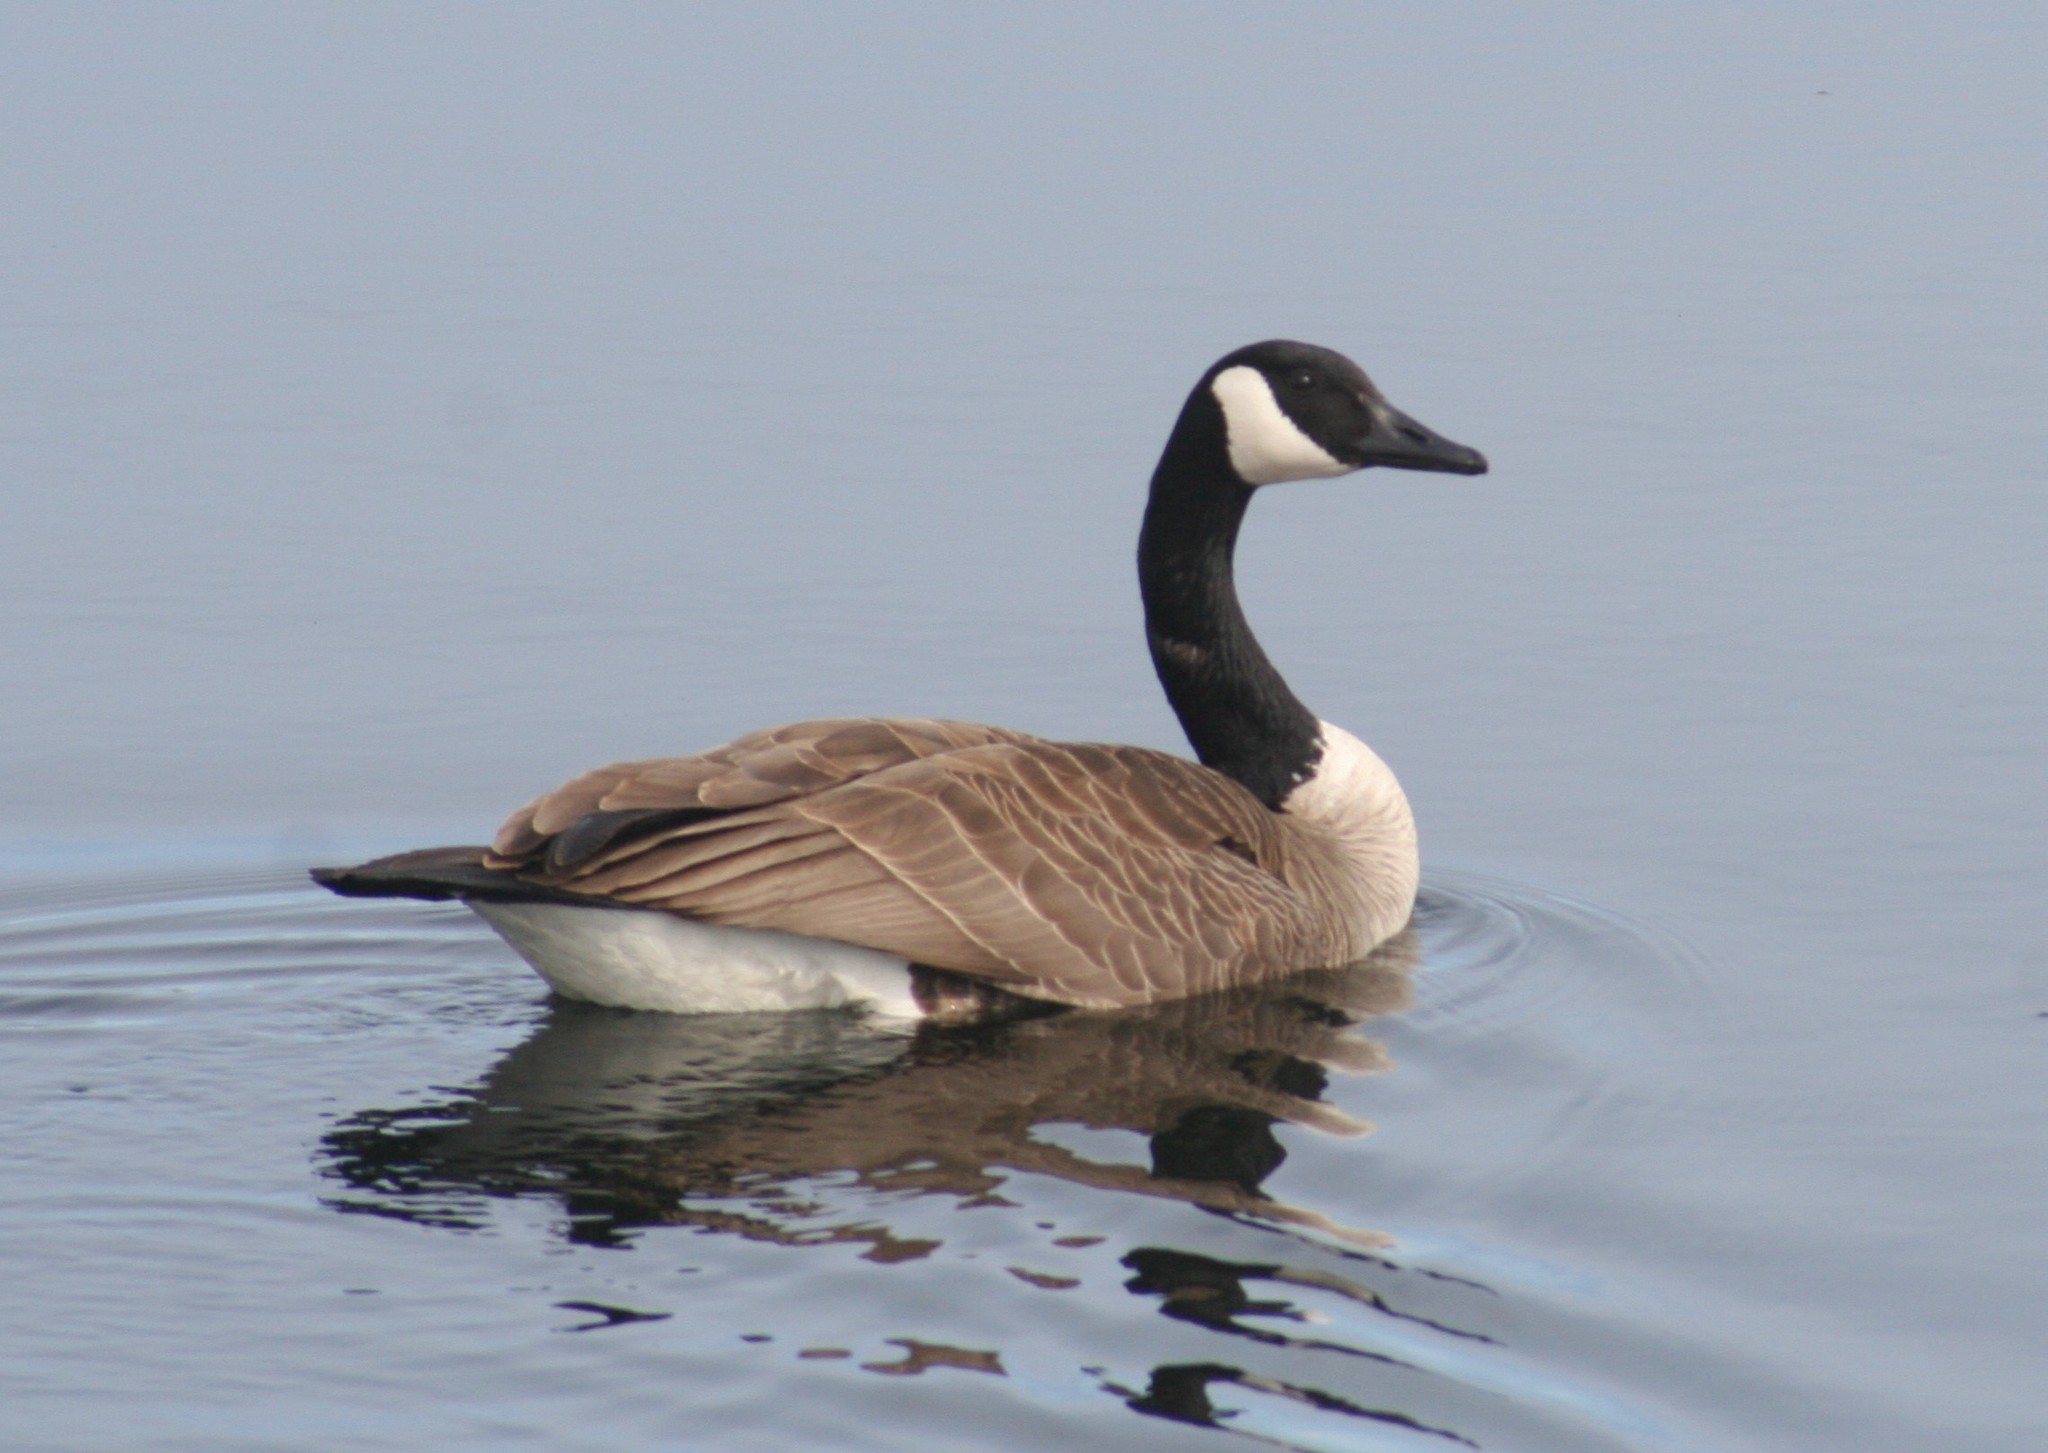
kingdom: Animalia
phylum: Chordata
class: Aves
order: Anseriformes
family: Anatidae
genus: Branta
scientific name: Branta canadensis
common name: Canada goose
